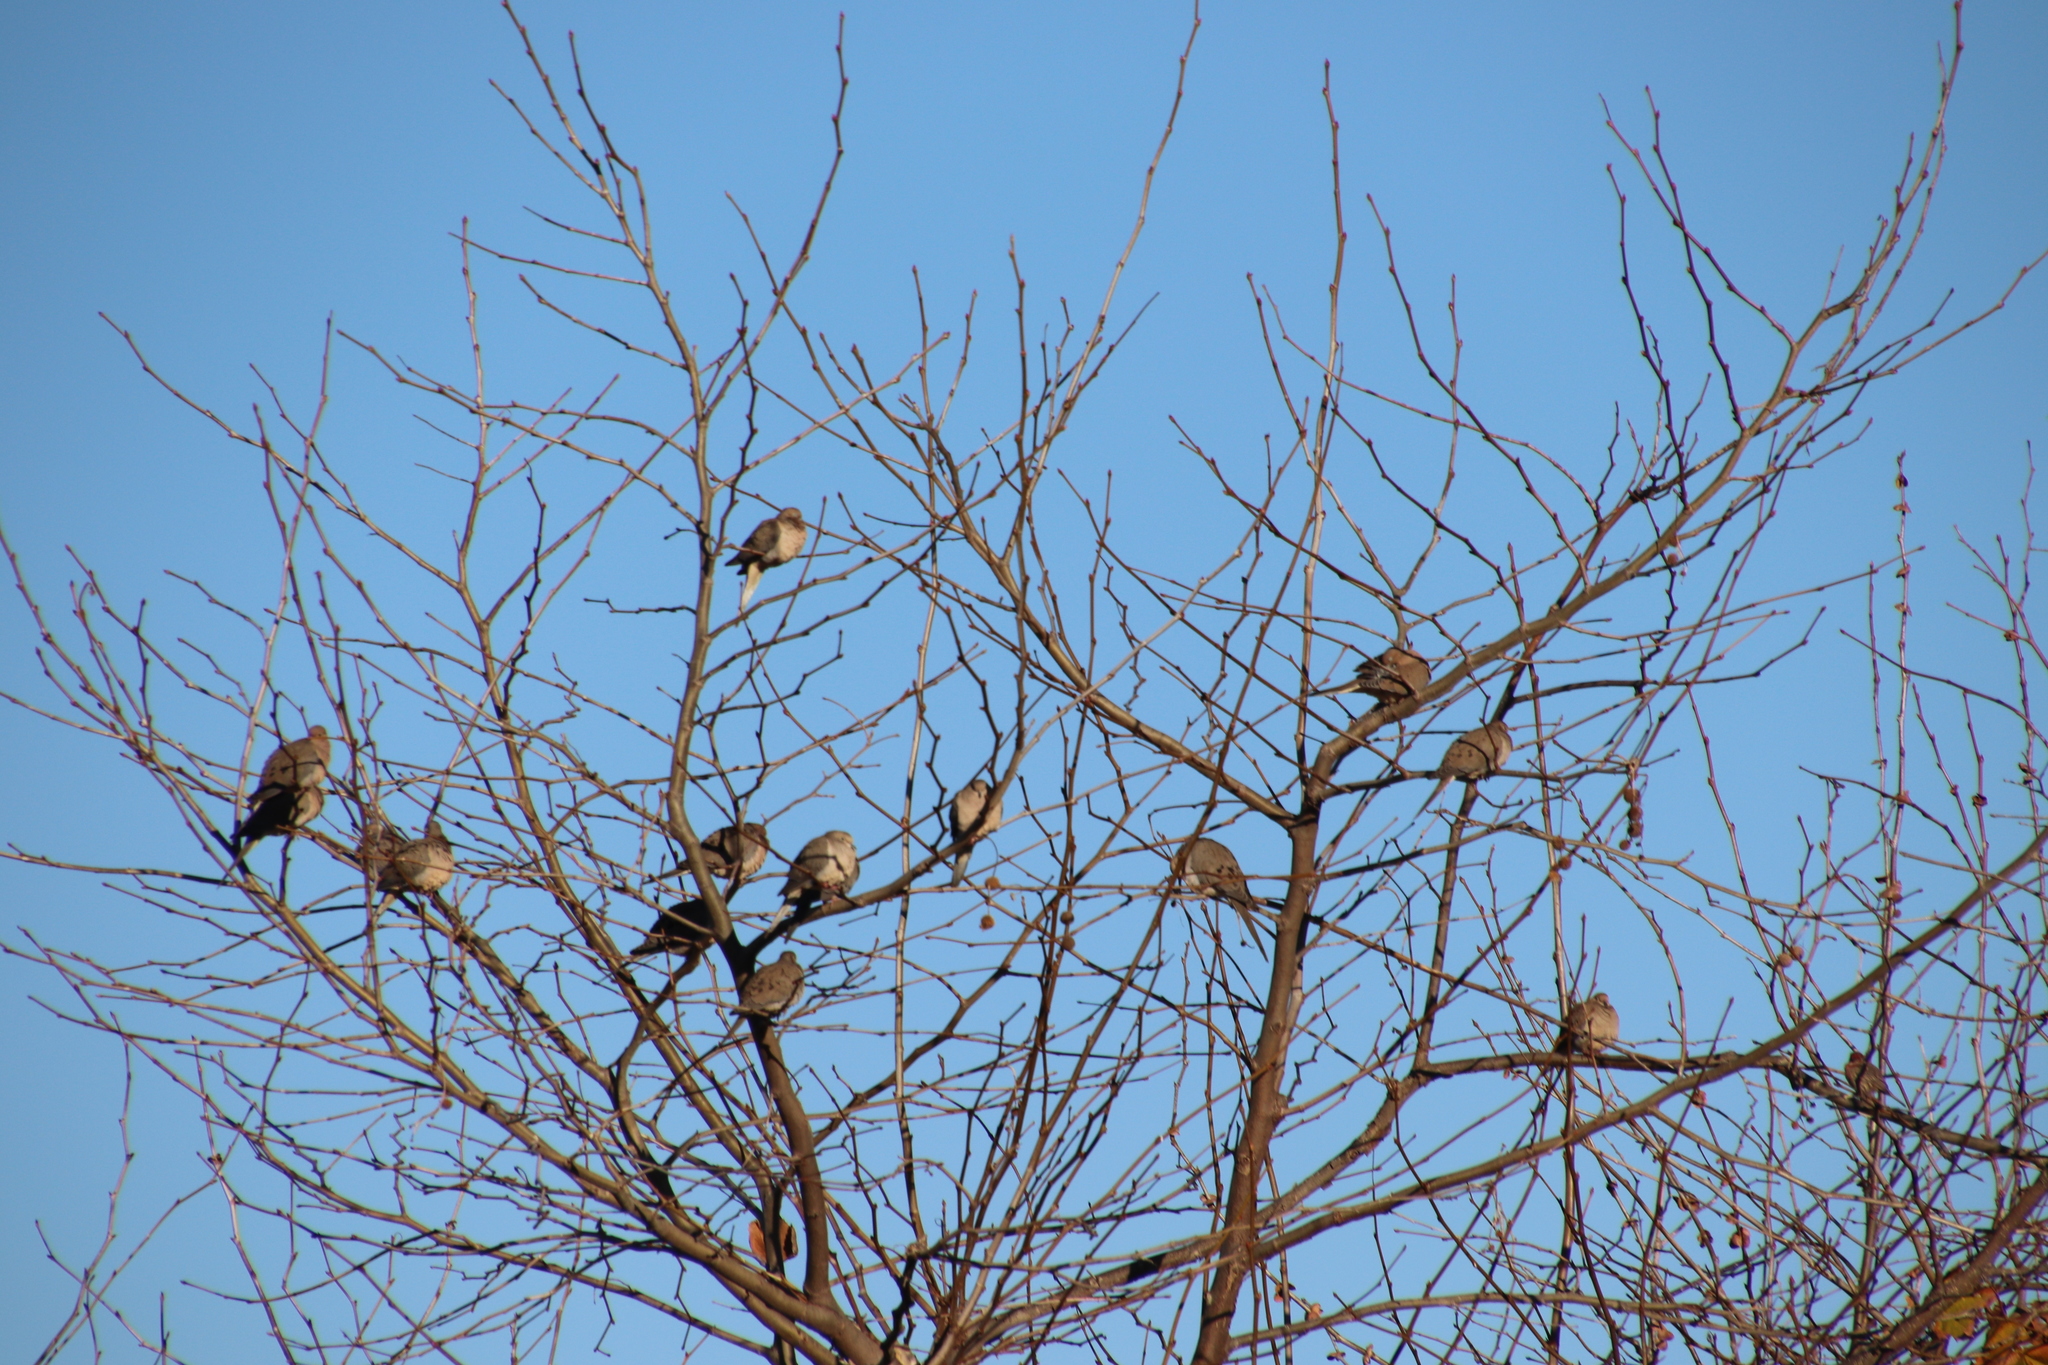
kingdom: Animalia
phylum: Chordata
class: Aves
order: Columbiformes
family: Columbidae
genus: Zenaida
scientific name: Zenaida macroura
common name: Mourning dove
